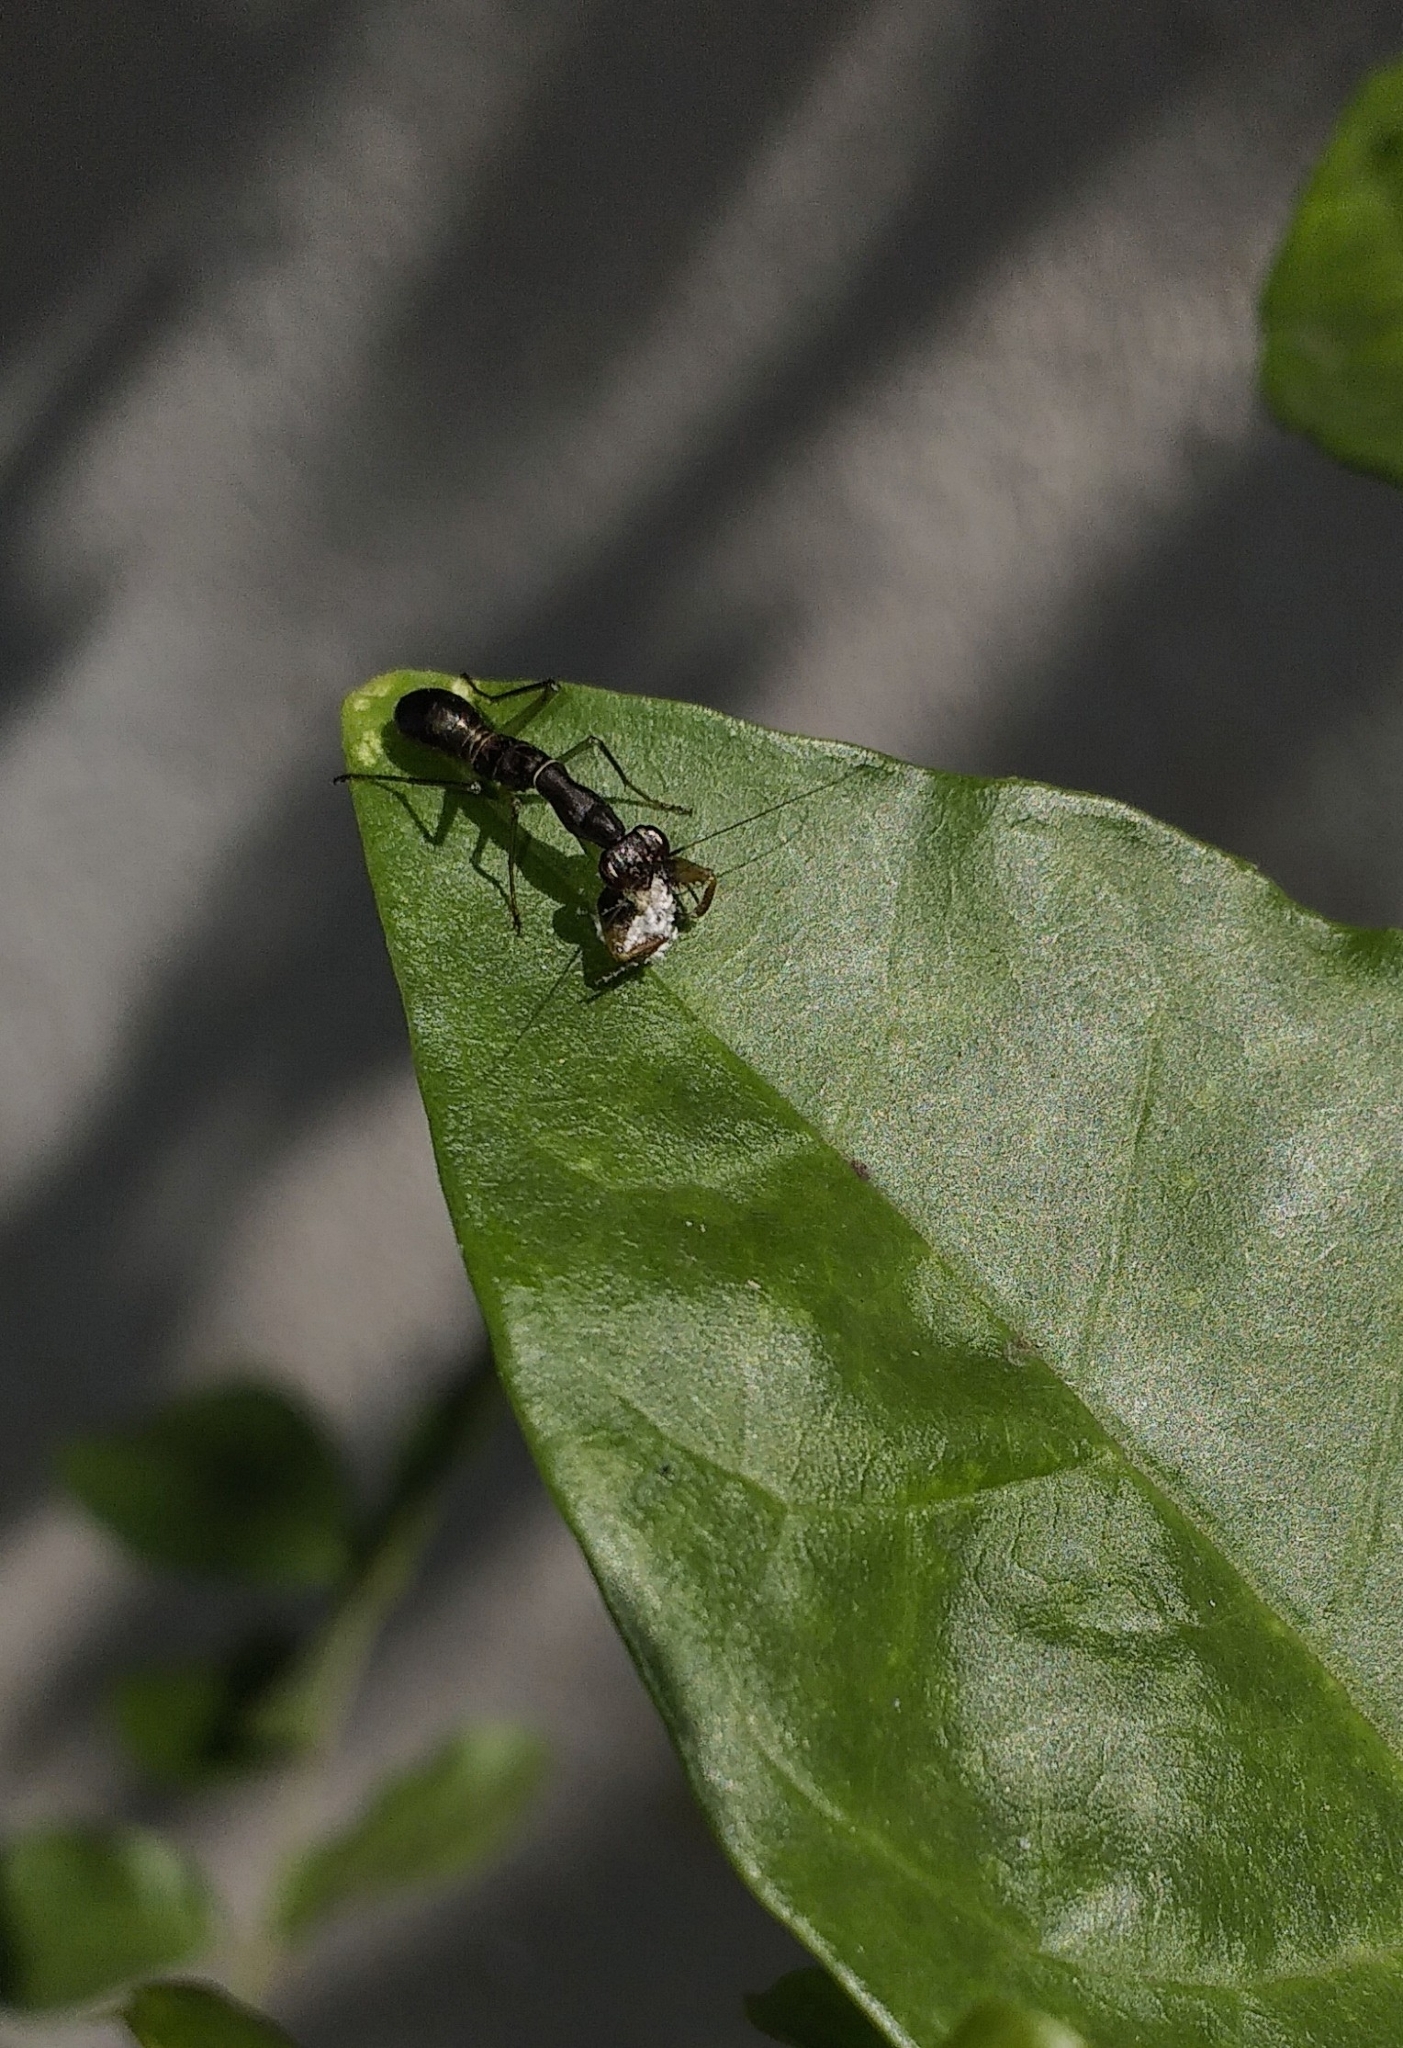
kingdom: Animalia
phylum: Arthropoda
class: Insecta
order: Mantodea
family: Hymenopodidae
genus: Odontomantis
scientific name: Odontomantis planiceps
